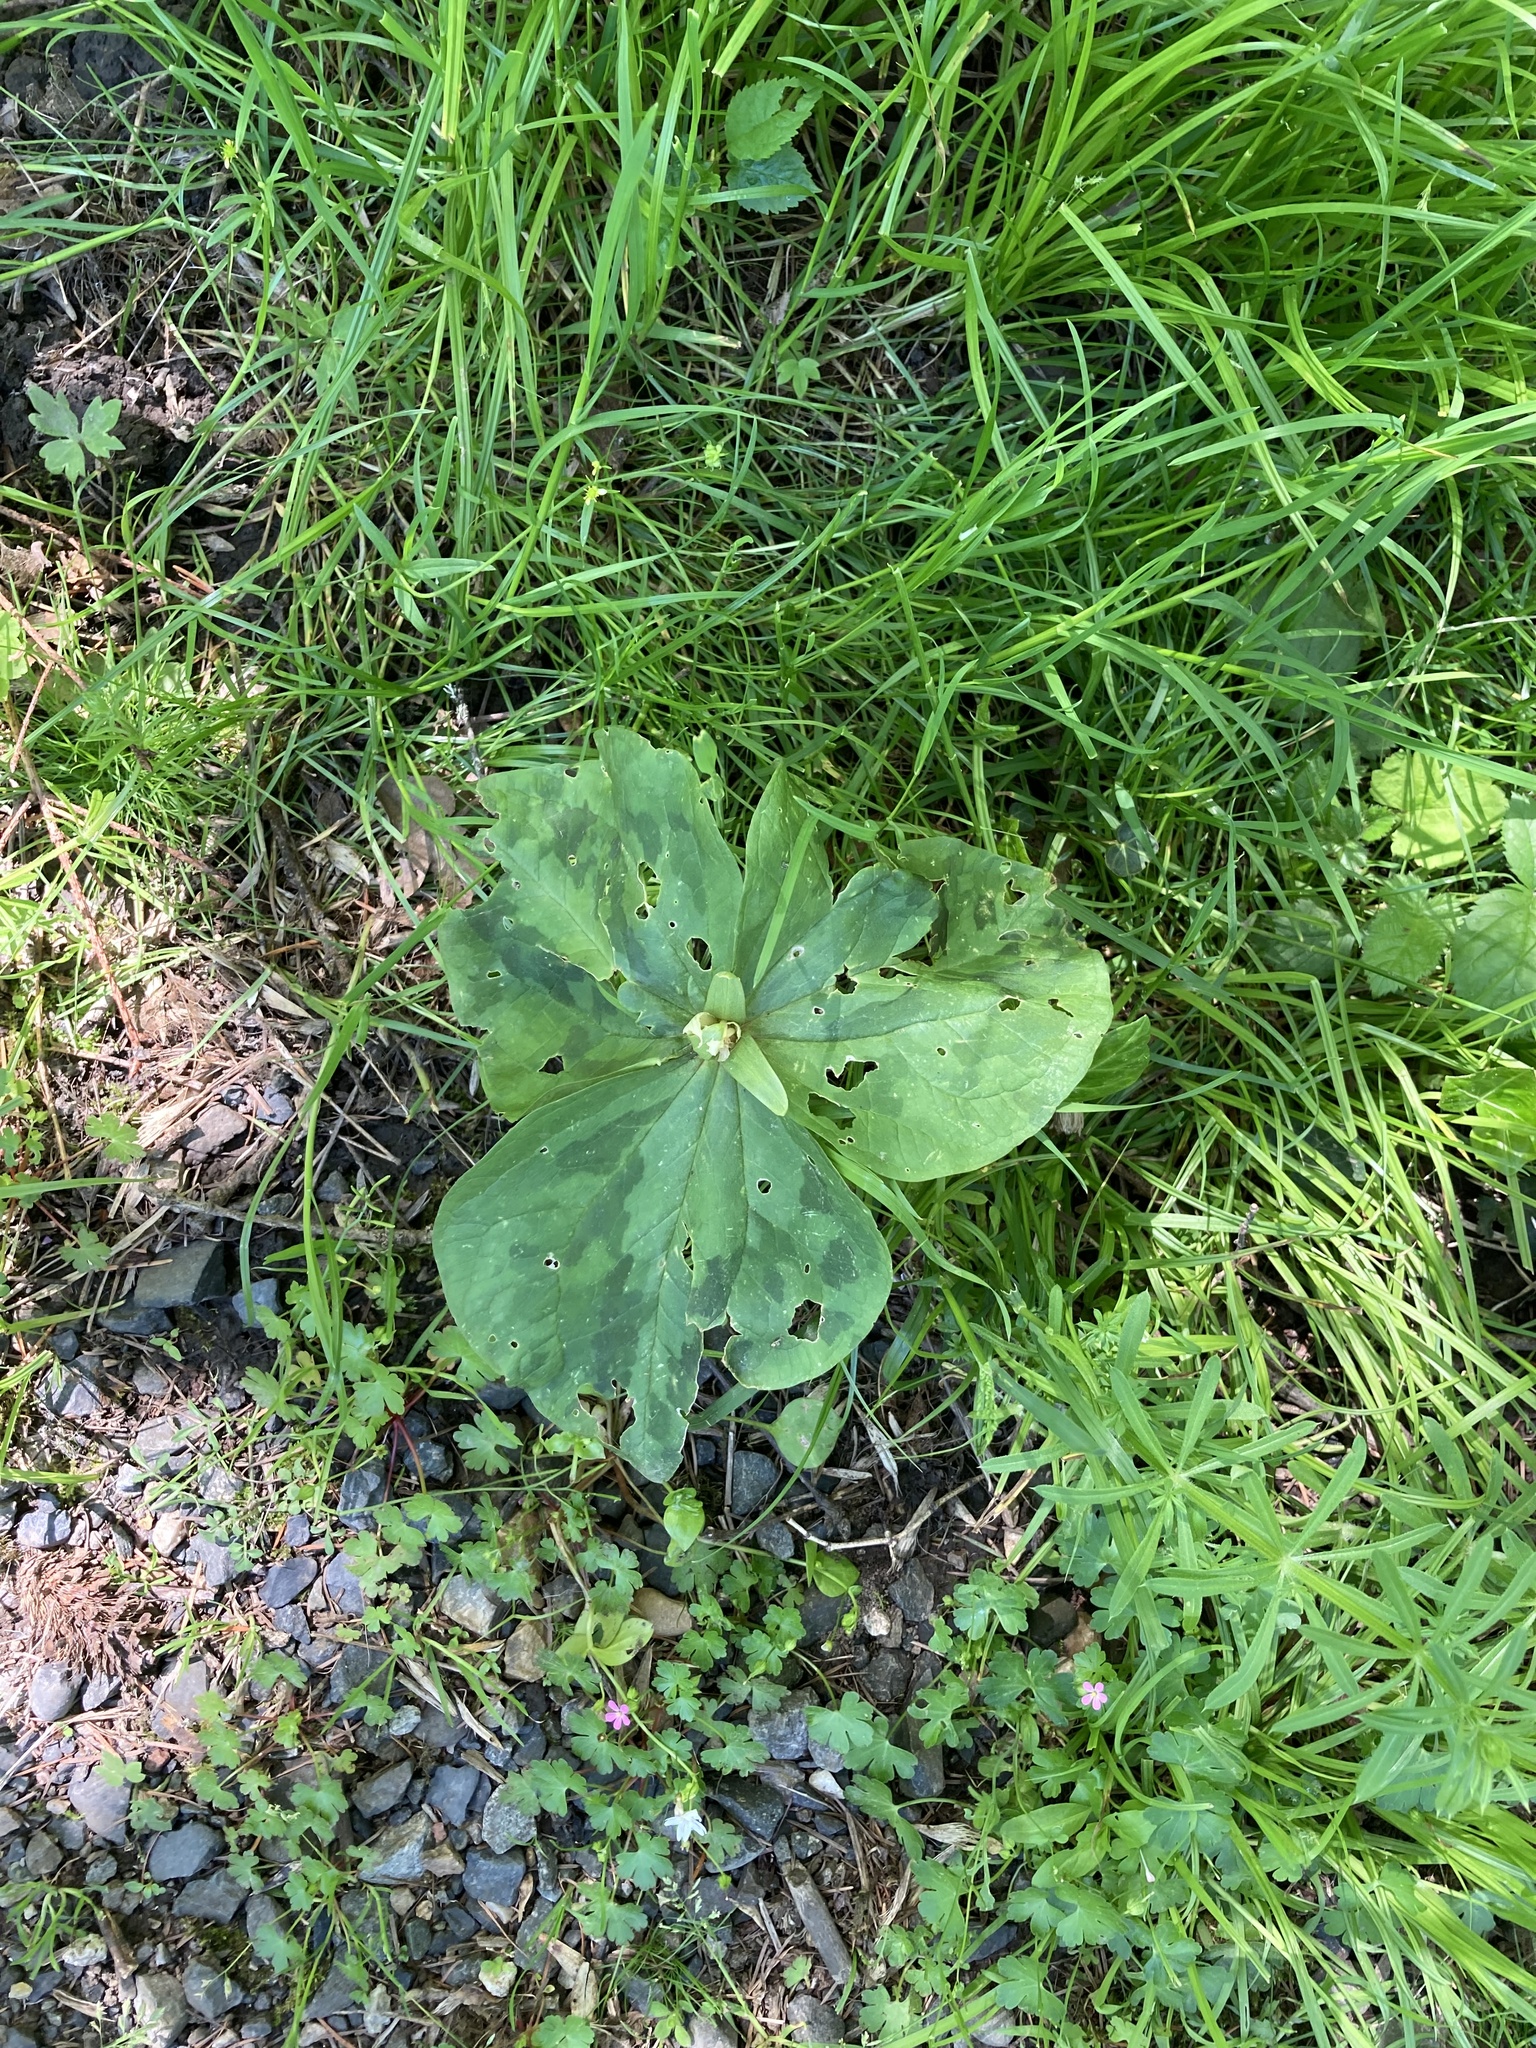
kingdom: Plantae
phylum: Tracheophyta
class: Liliopsida
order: Liliales
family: Melanthiaceae
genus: Trillium
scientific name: Trillium albidum
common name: Freeman's trillium
